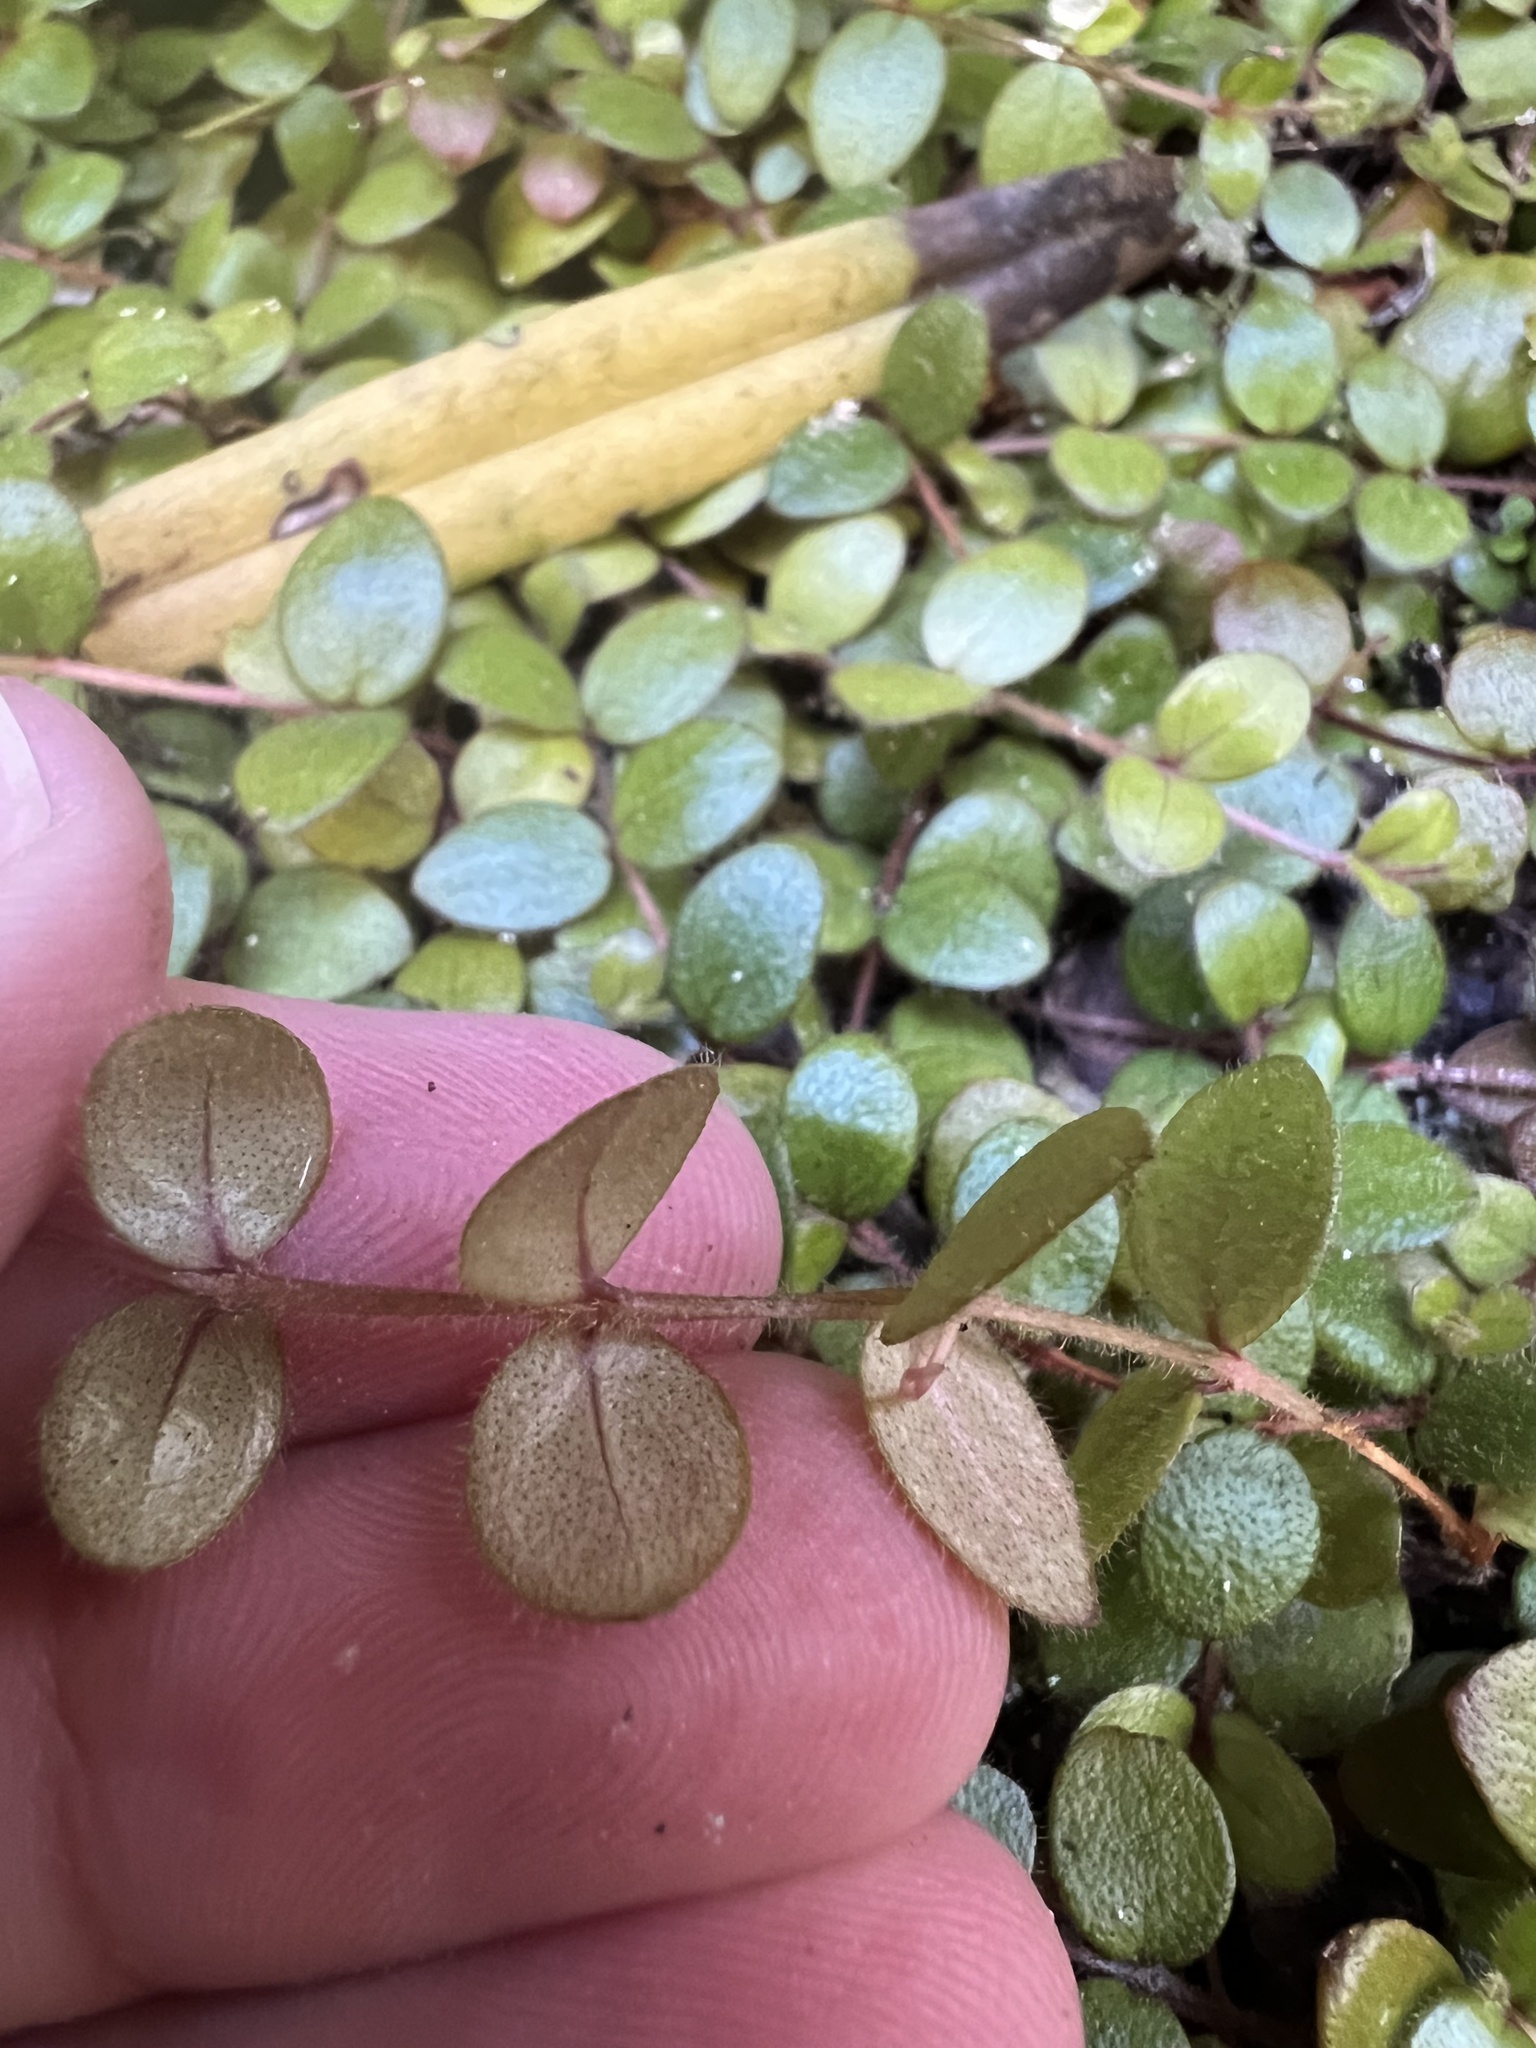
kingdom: Plantae
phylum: Tracheophyta
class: Magnoliopsida
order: Myrtales
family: Myrtaceae
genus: Metrosideros
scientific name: Metrosideros carminea
